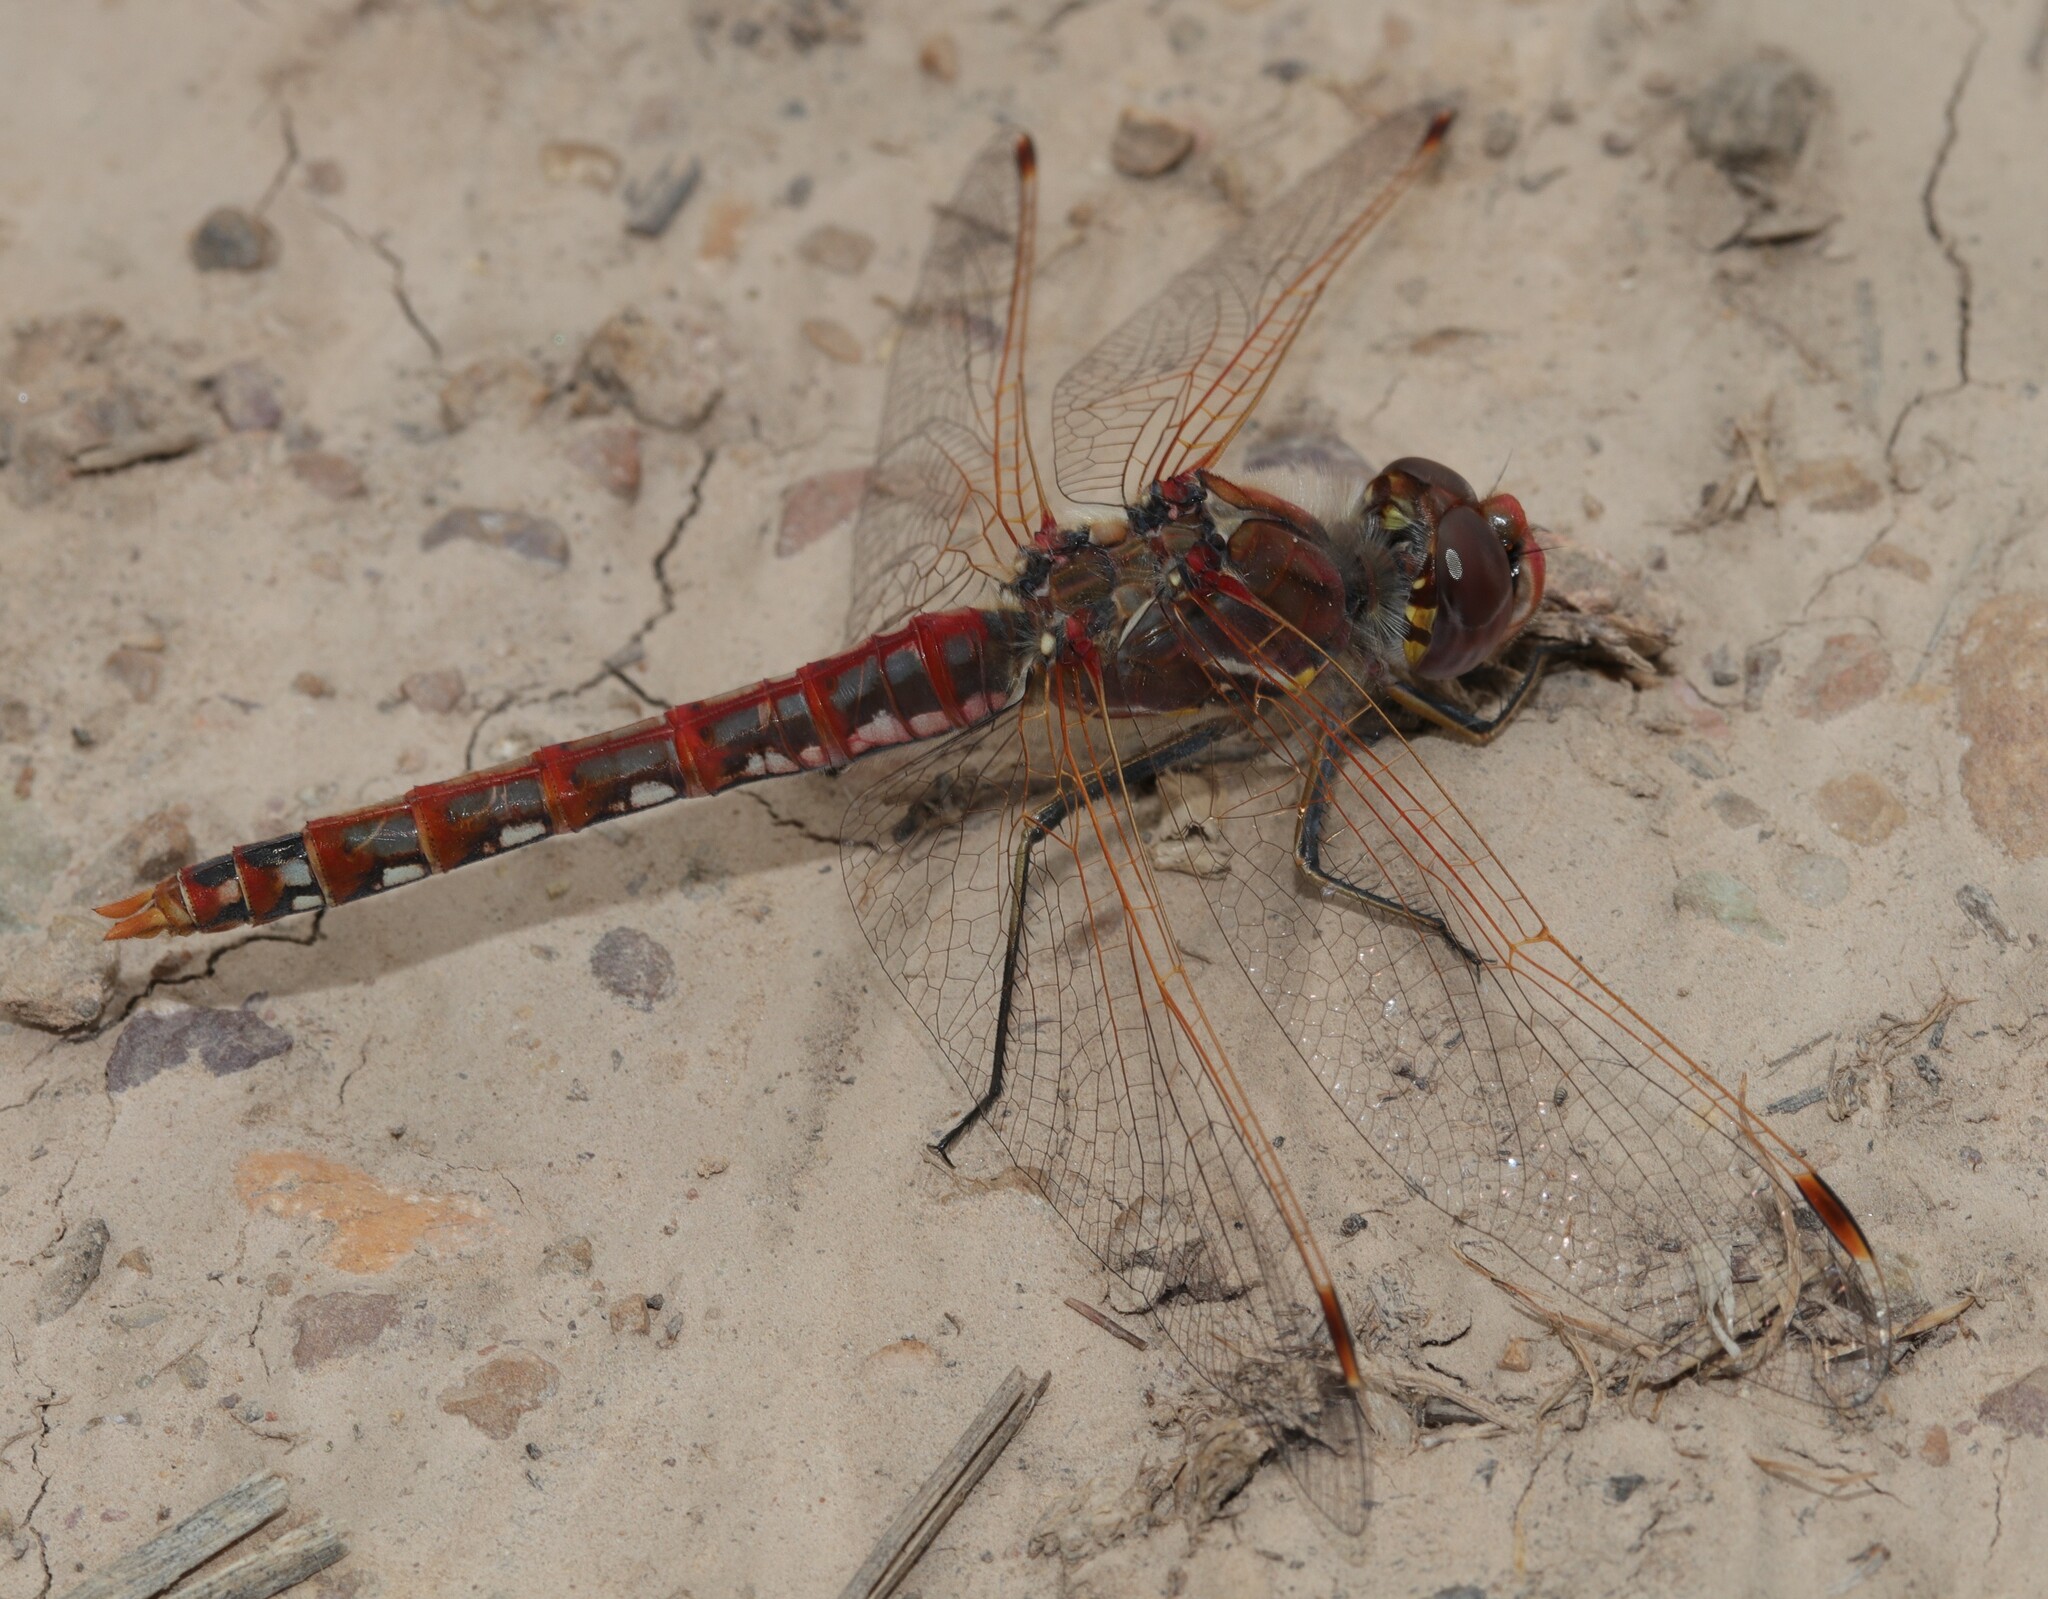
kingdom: Animalia
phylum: Arthropoda
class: Insecta
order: Odonata
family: Libellulidae
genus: Sympetrum
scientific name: Sympetrum corruptum
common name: Variegated meadowhawk
